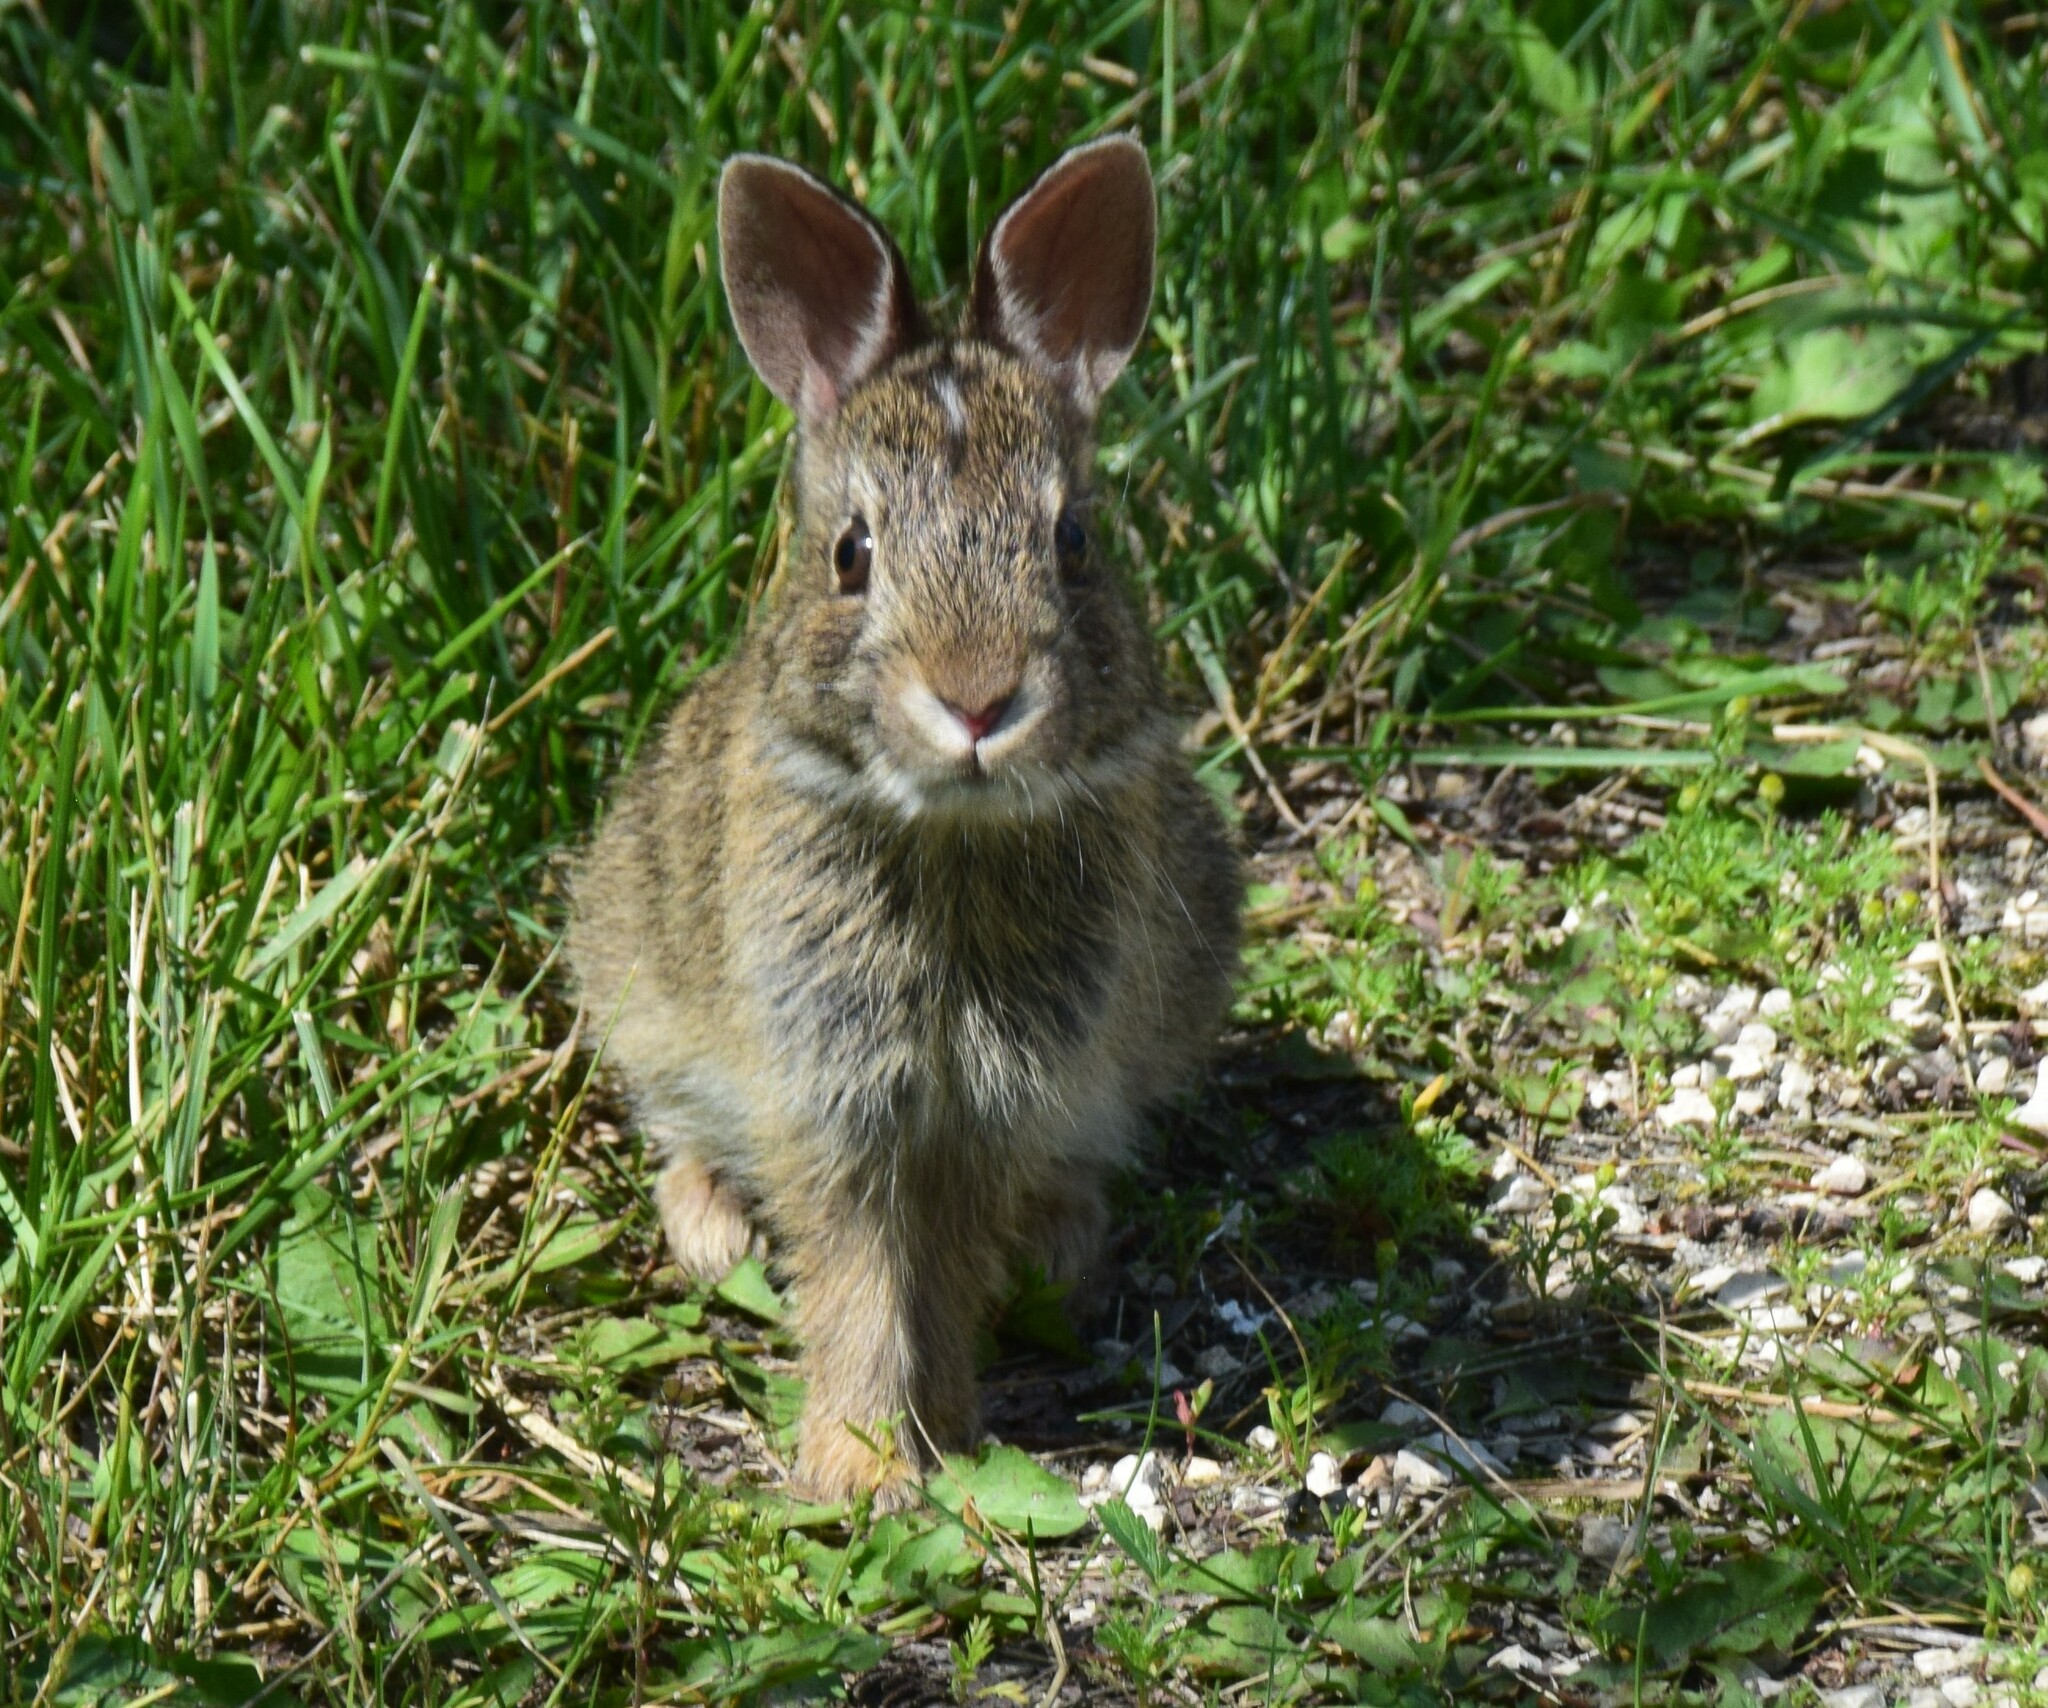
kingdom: Animalia
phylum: Chordata
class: Mammalia
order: Lagomorpha
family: Leporidae
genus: Sylvilagus
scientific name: Sylvilagus floridanus
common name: Eastern cottontail
